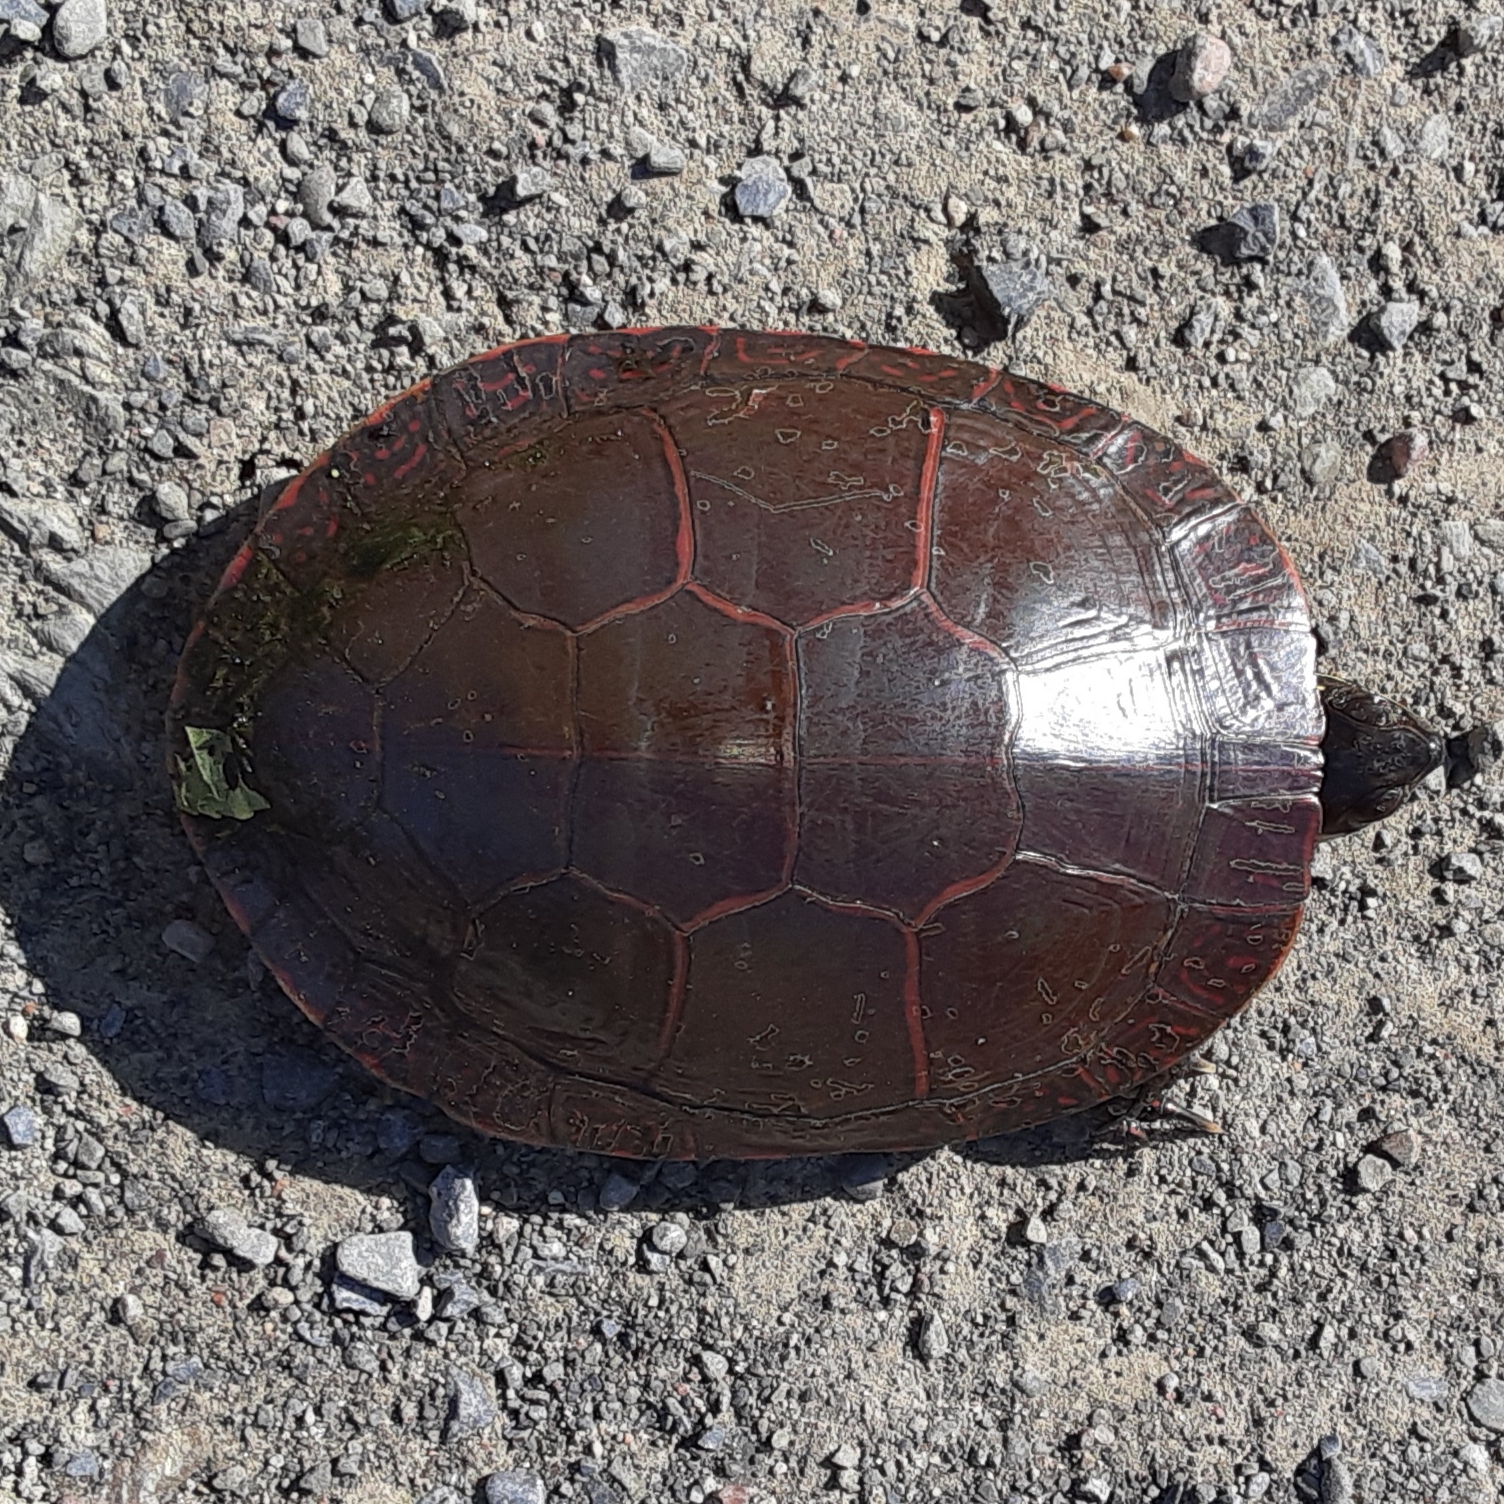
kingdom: Animalia
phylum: Chordata
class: Testudines
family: Emydidae
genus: Chrysemys
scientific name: Chrysemys picta
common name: Painted turtle
